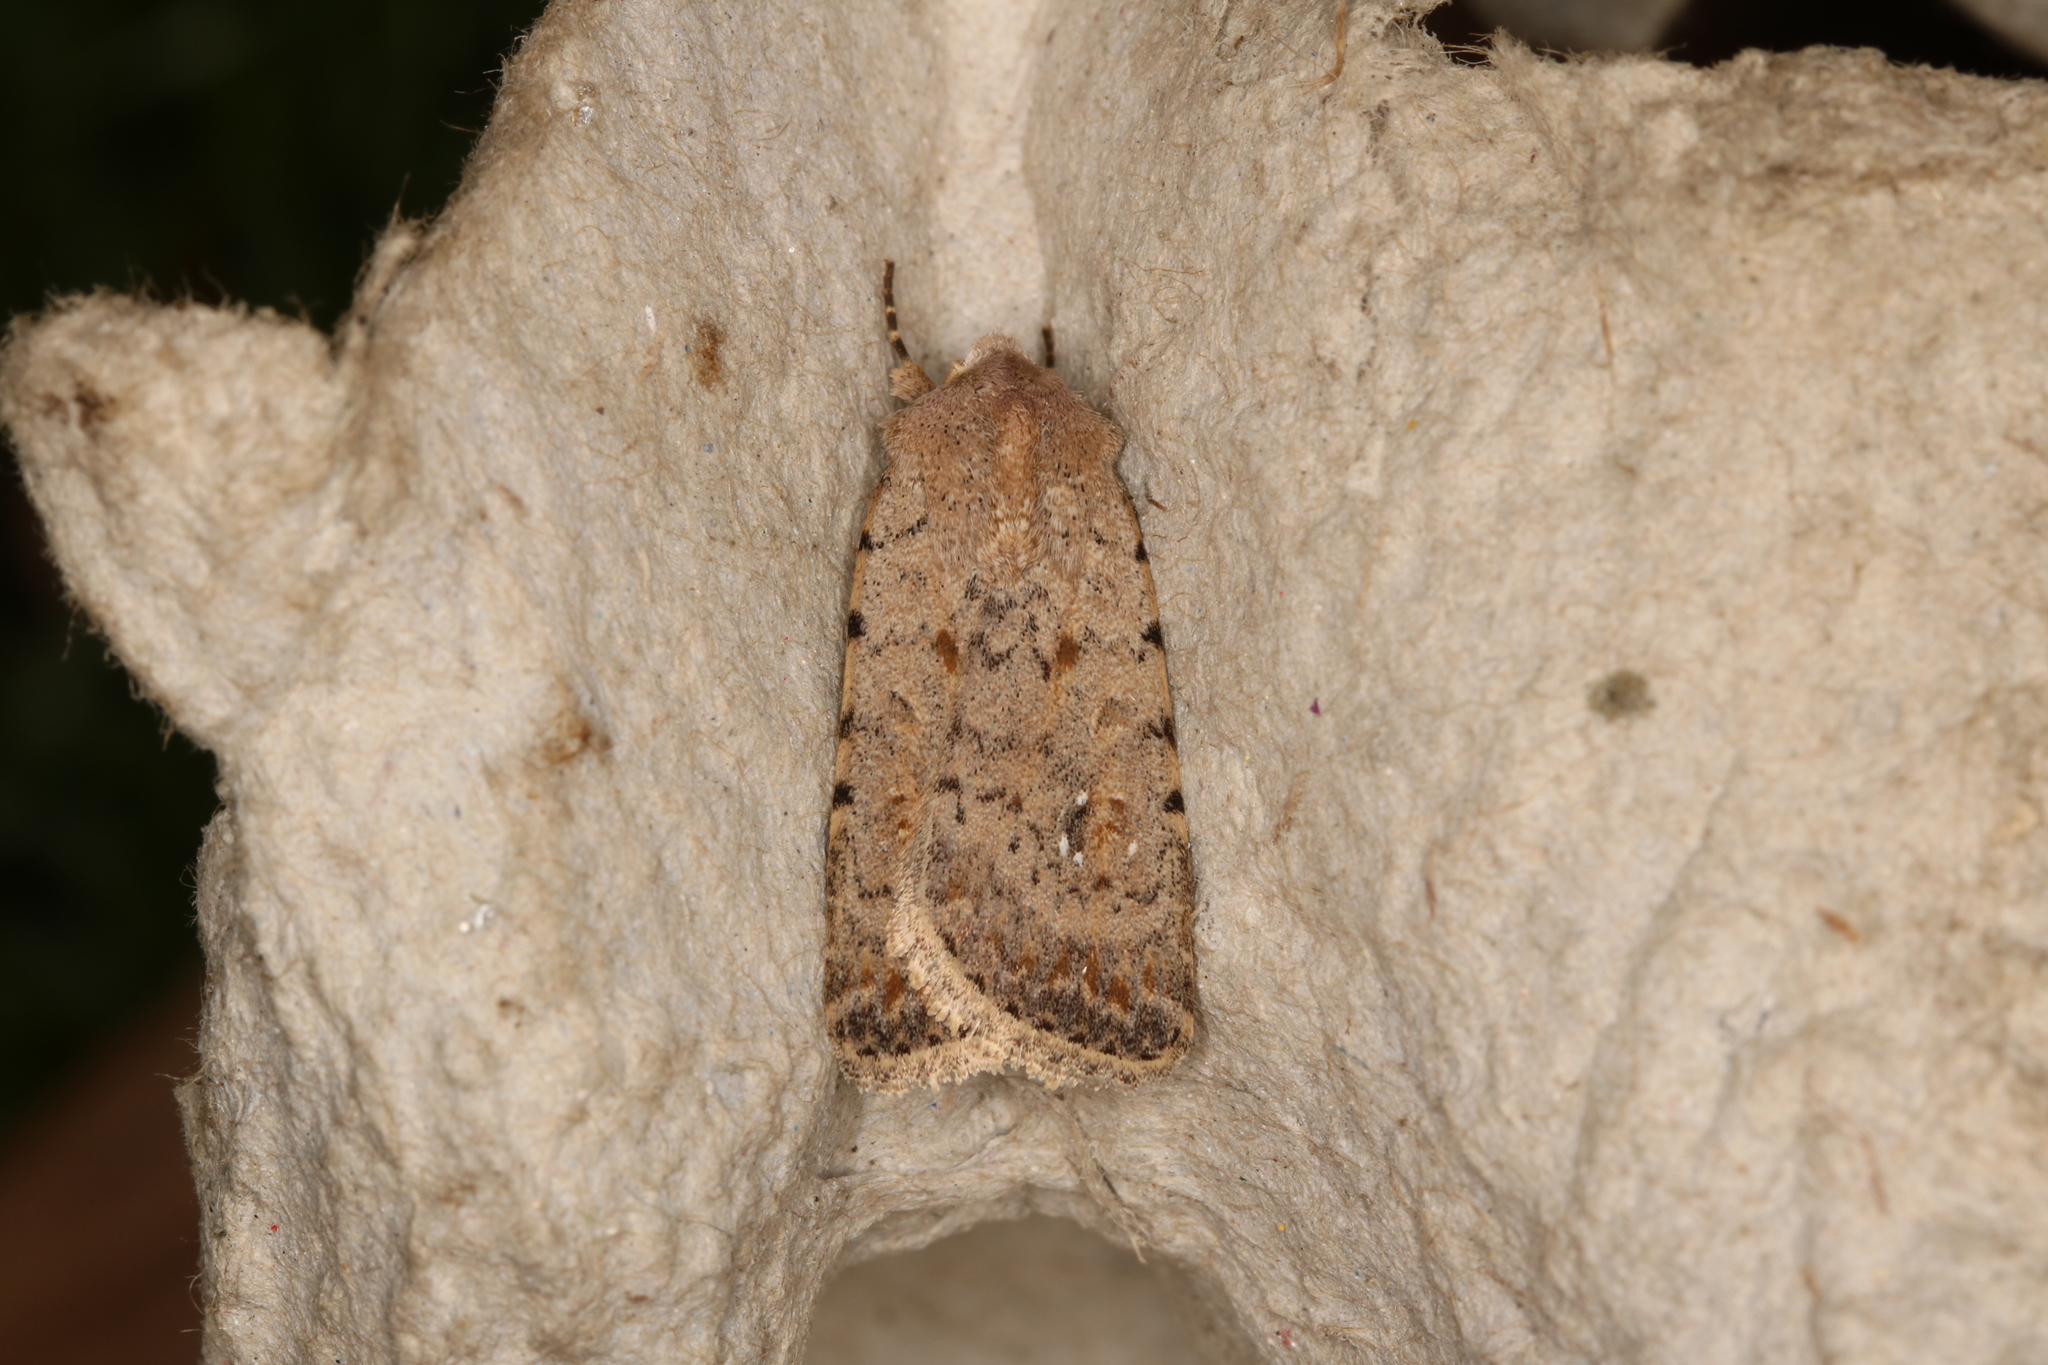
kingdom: Animalia
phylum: Arthropoda
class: Insecta
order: Lepidoptera
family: Noctuidae
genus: Caradrina
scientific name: Caradrina clavipalpis
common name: Pale mottled willow
